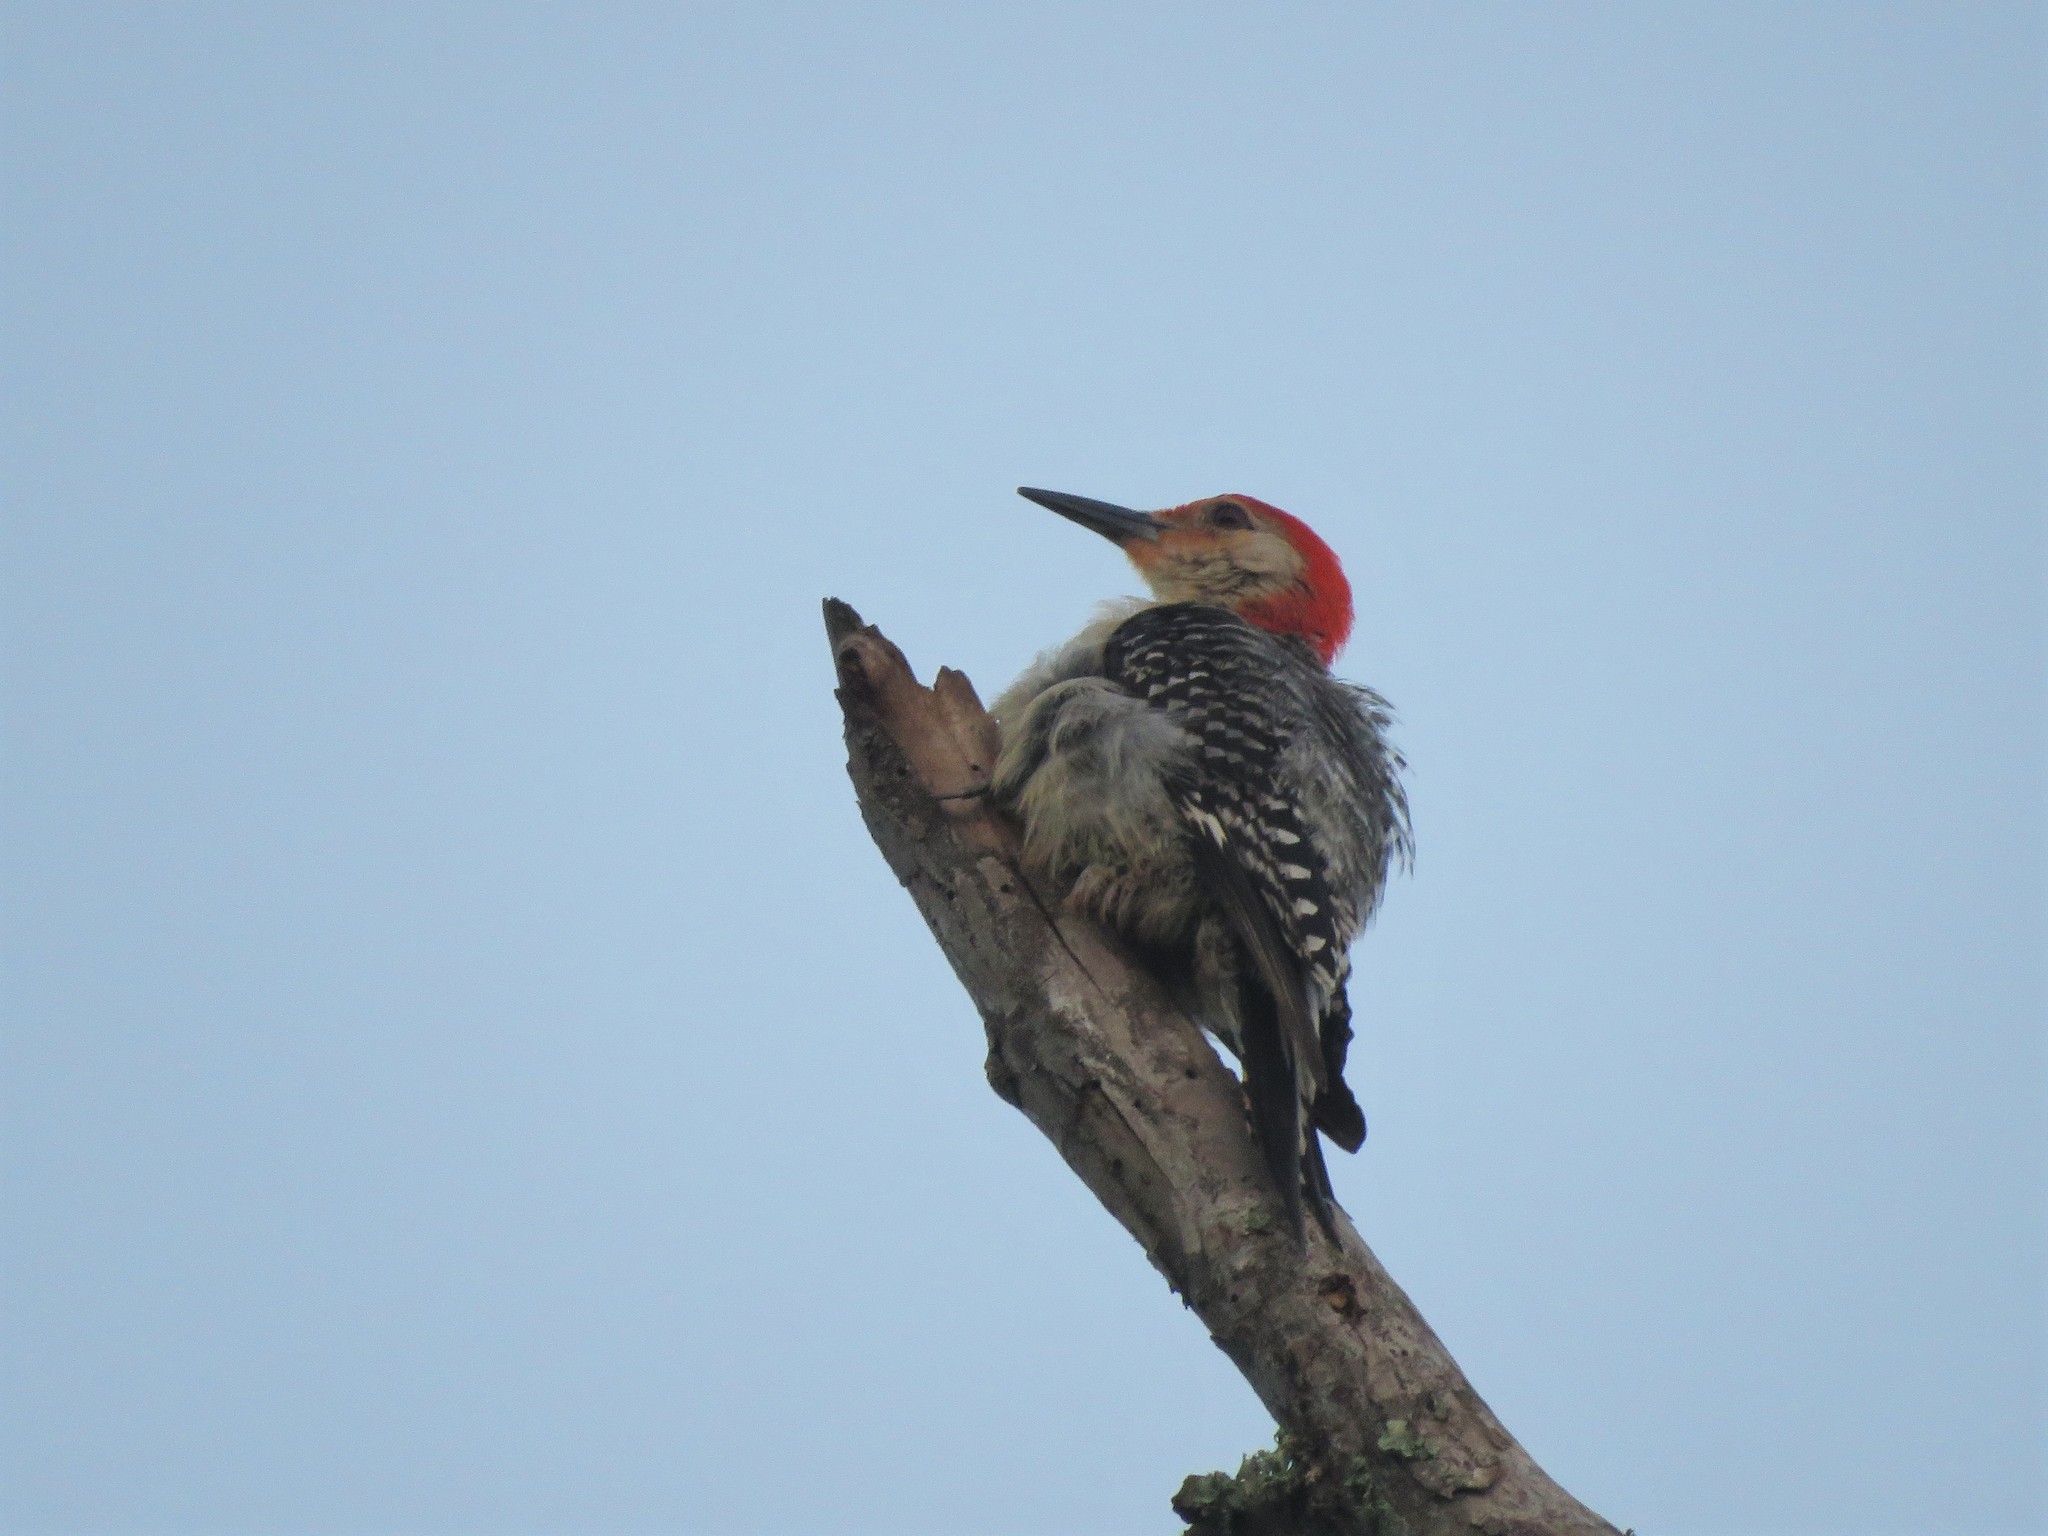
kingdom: Animalia
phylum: Chordata
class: Aves
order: Piciformes
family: Picidae
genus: Melanerpes
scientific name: Melanerpes carolinus
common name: Red-bellied woodpecker
